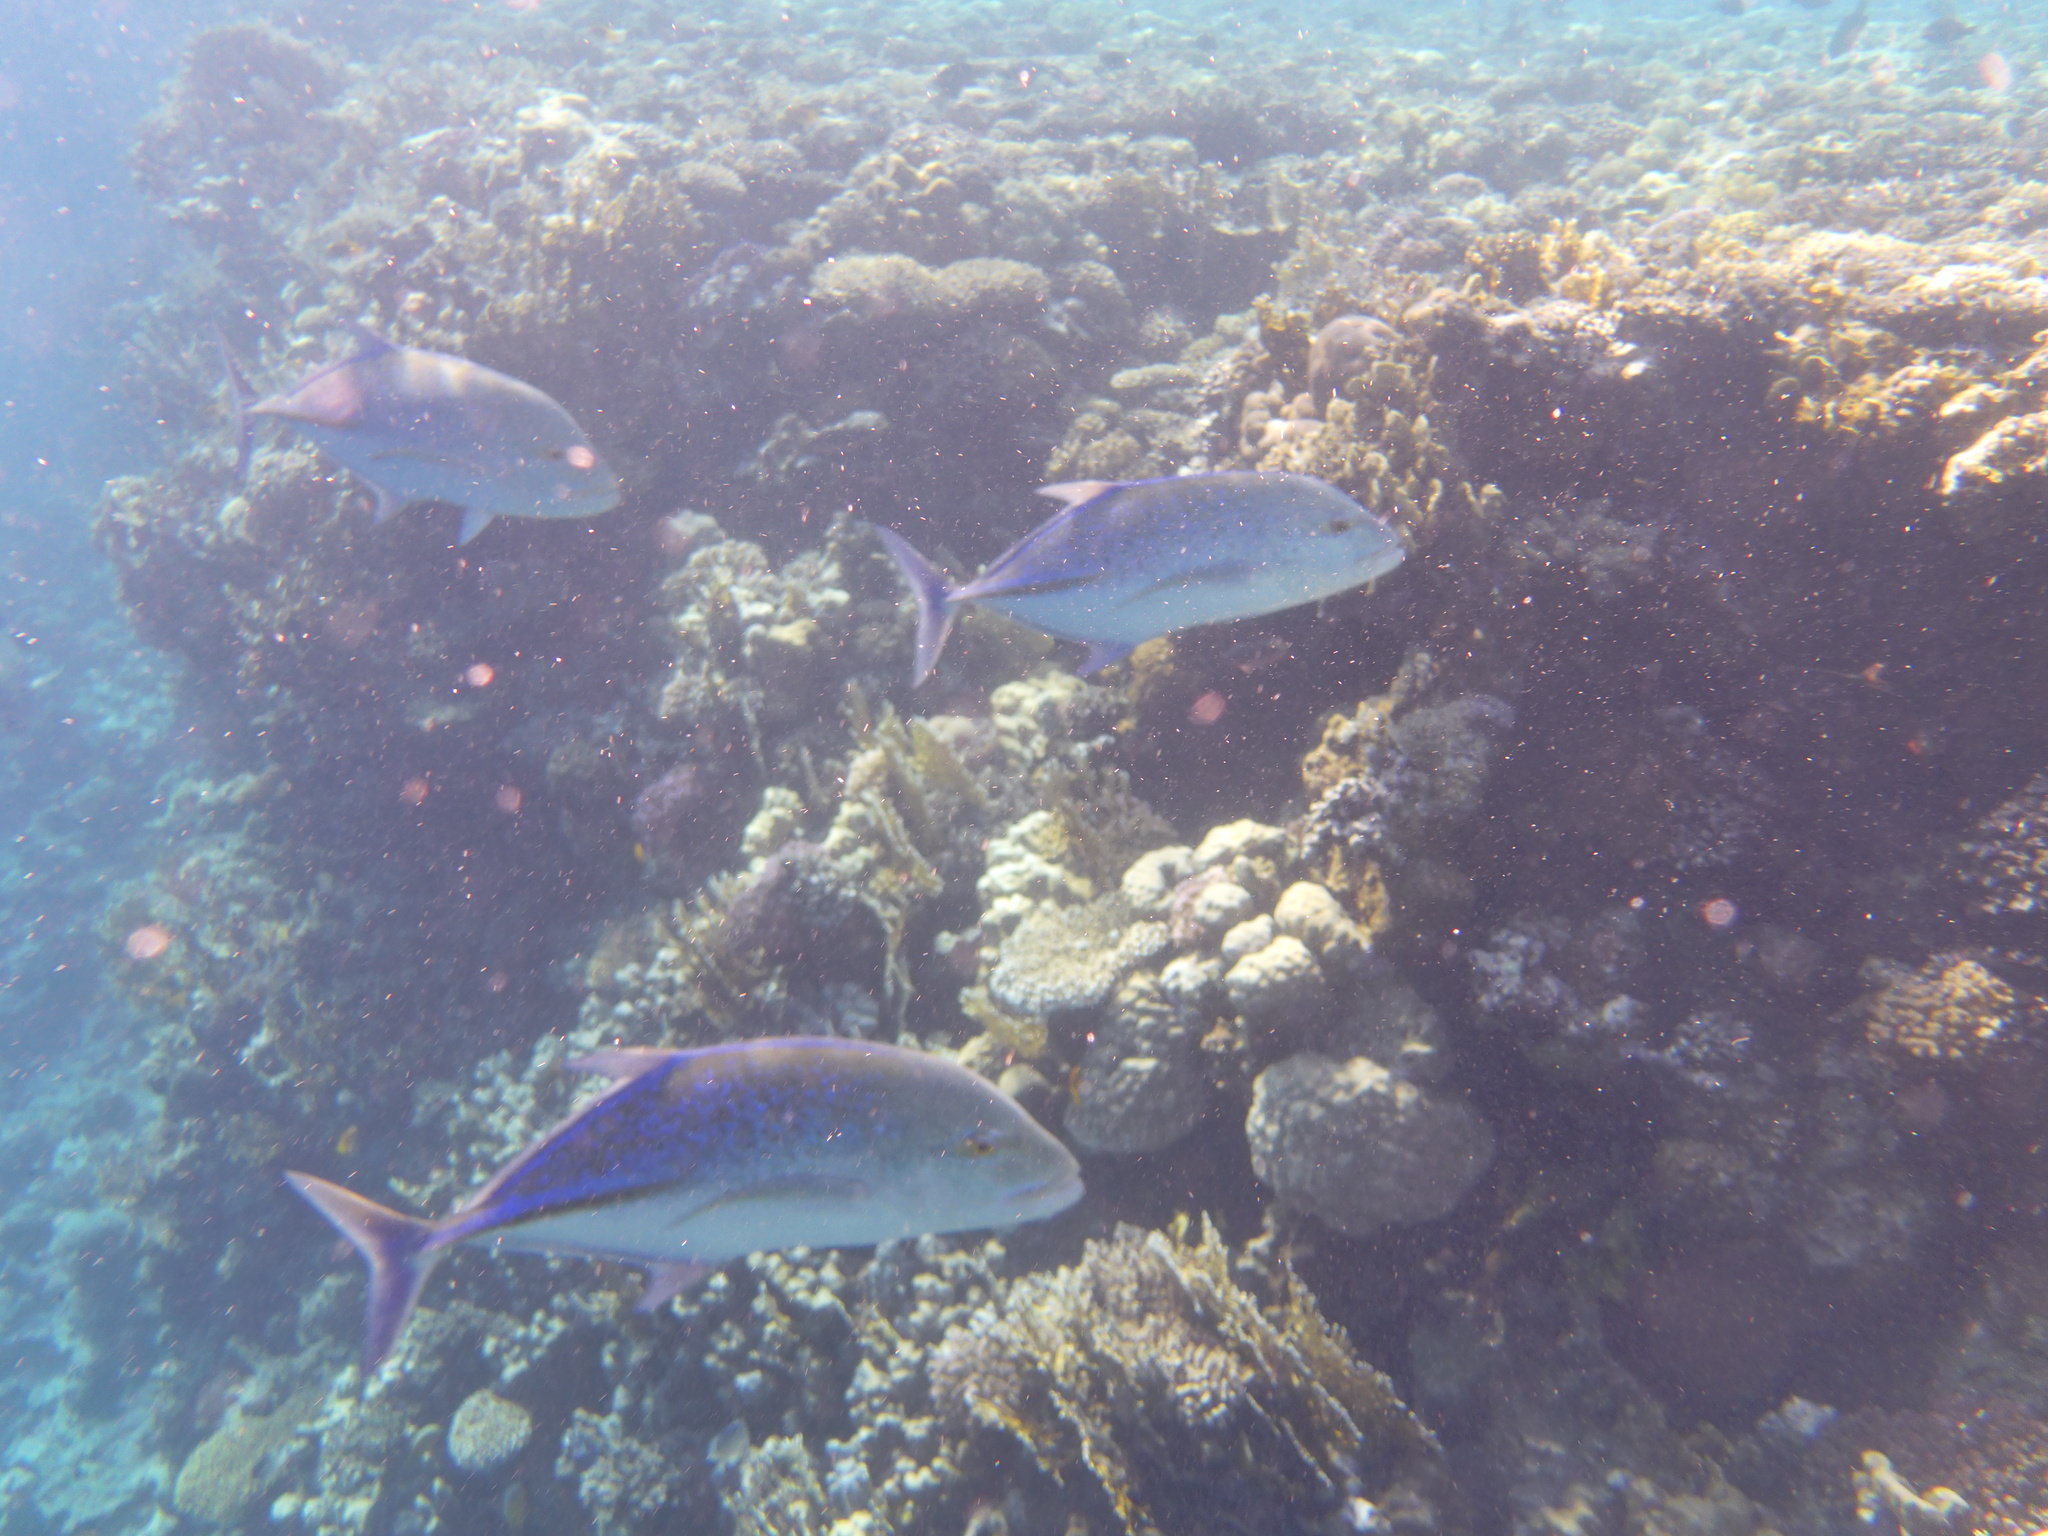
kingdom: Animalia
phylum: Chordata
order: Perciformes
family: Carangidae
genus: Caranx
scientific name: Caranx melampygus
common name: Bluefin trevally
